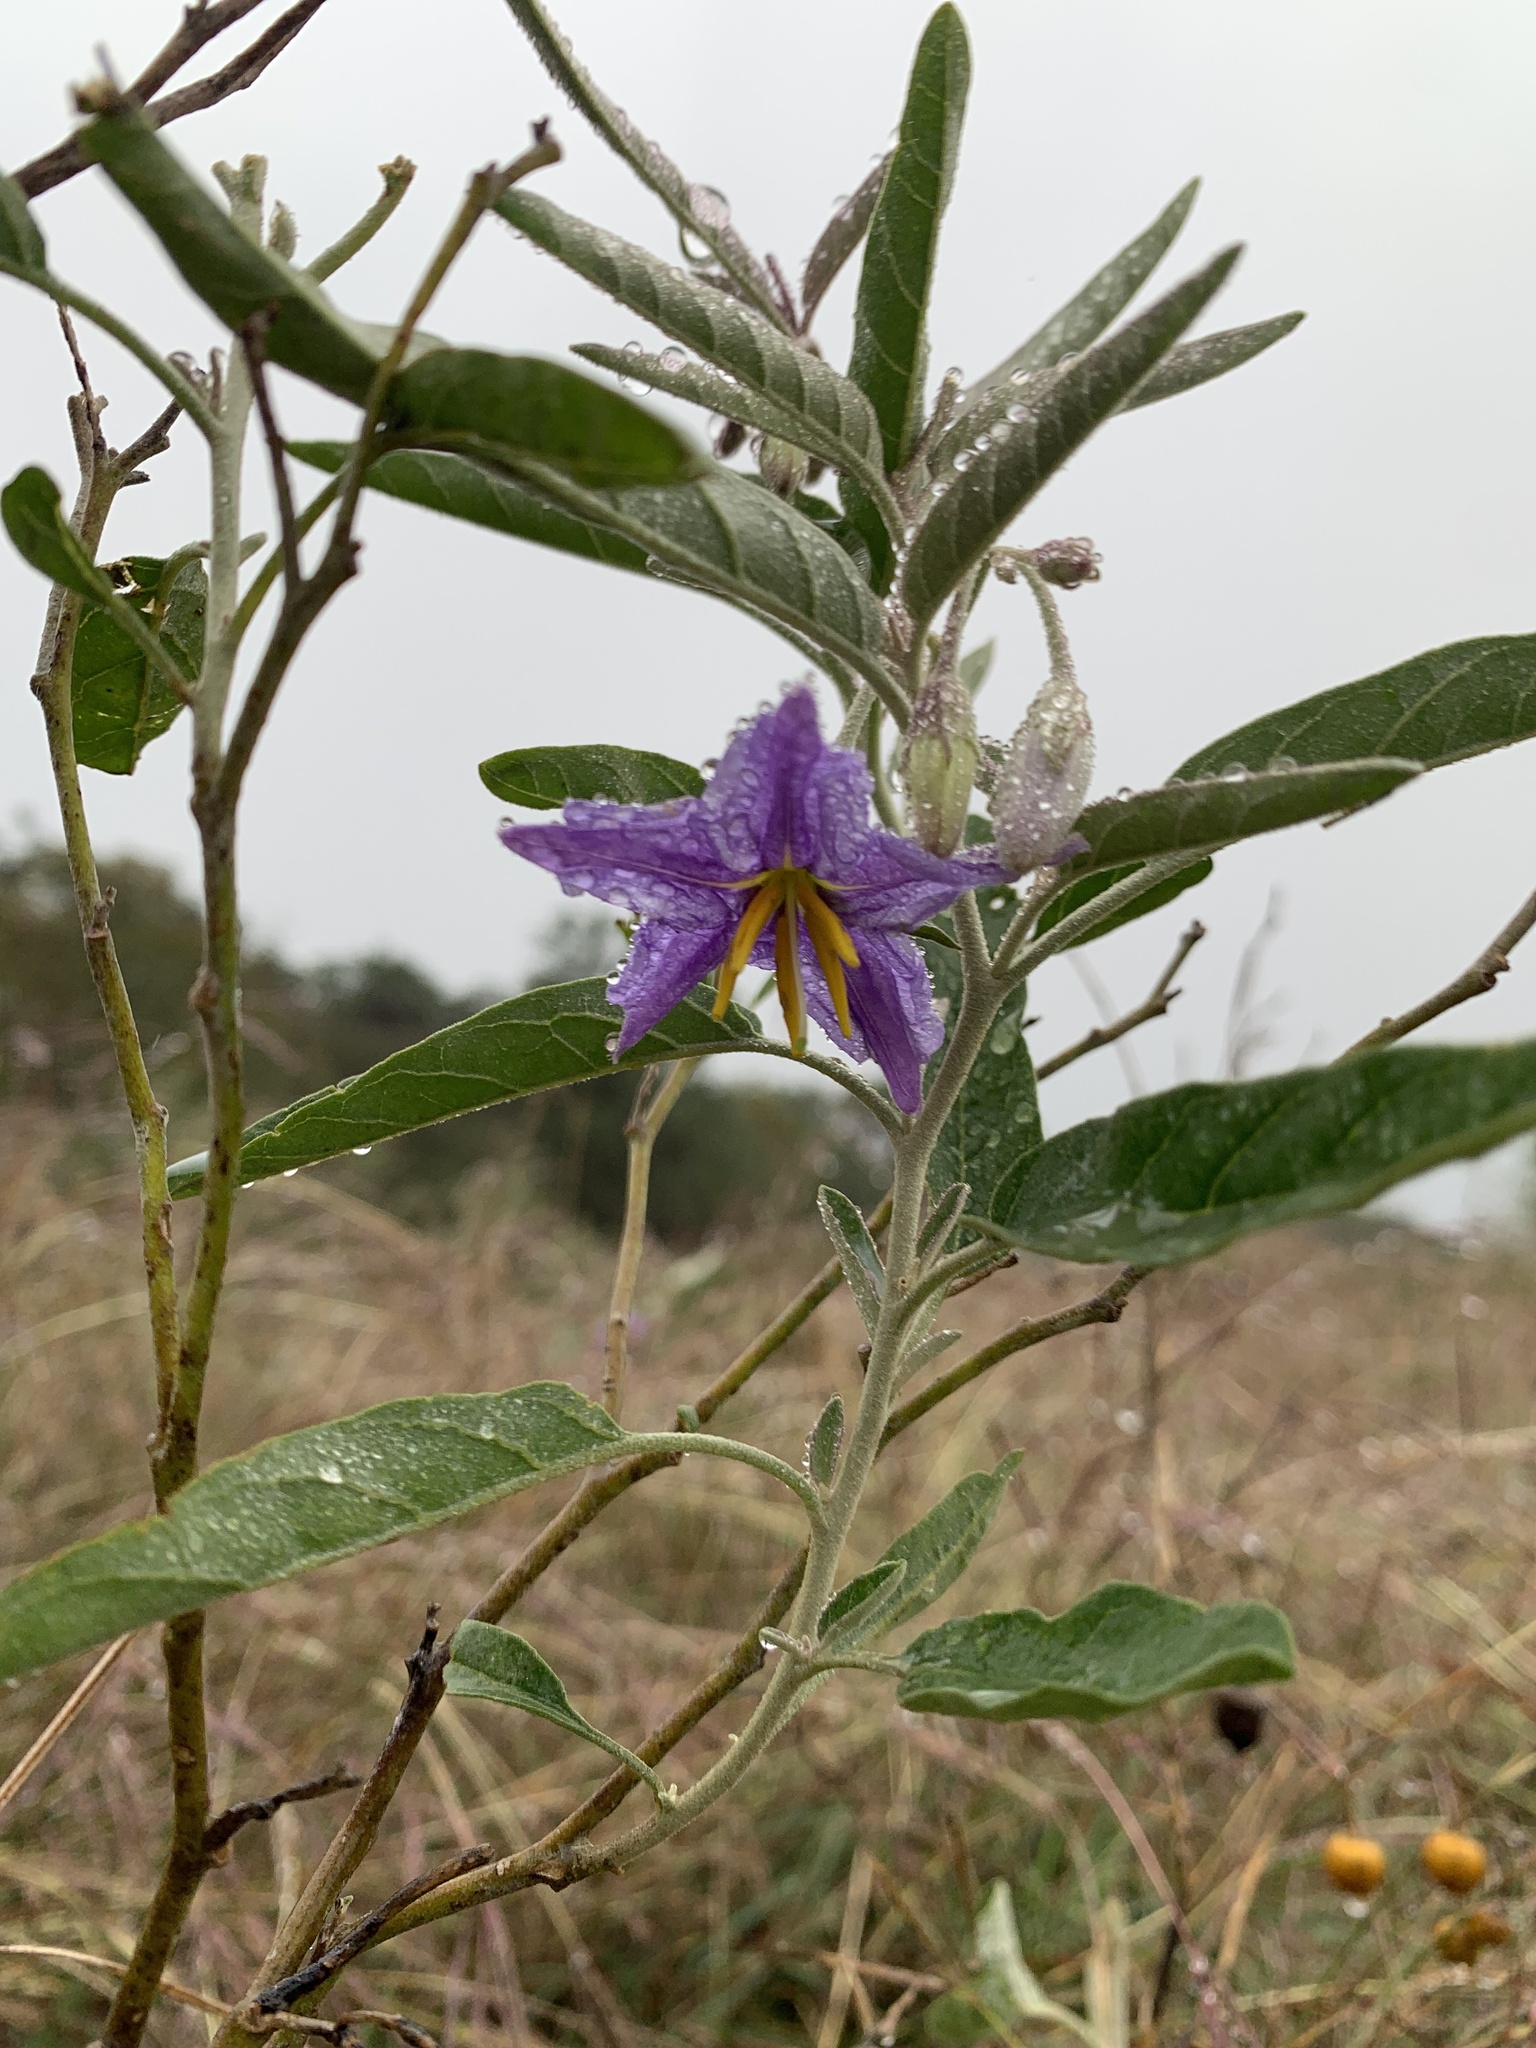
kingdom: Plantae
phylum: Tracheophyta
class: Magnoliopsida
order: Solanales
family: Solanaceae
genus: Solanum
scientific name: Solanum elaeagnifolium
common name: Silverleaf nightshade
